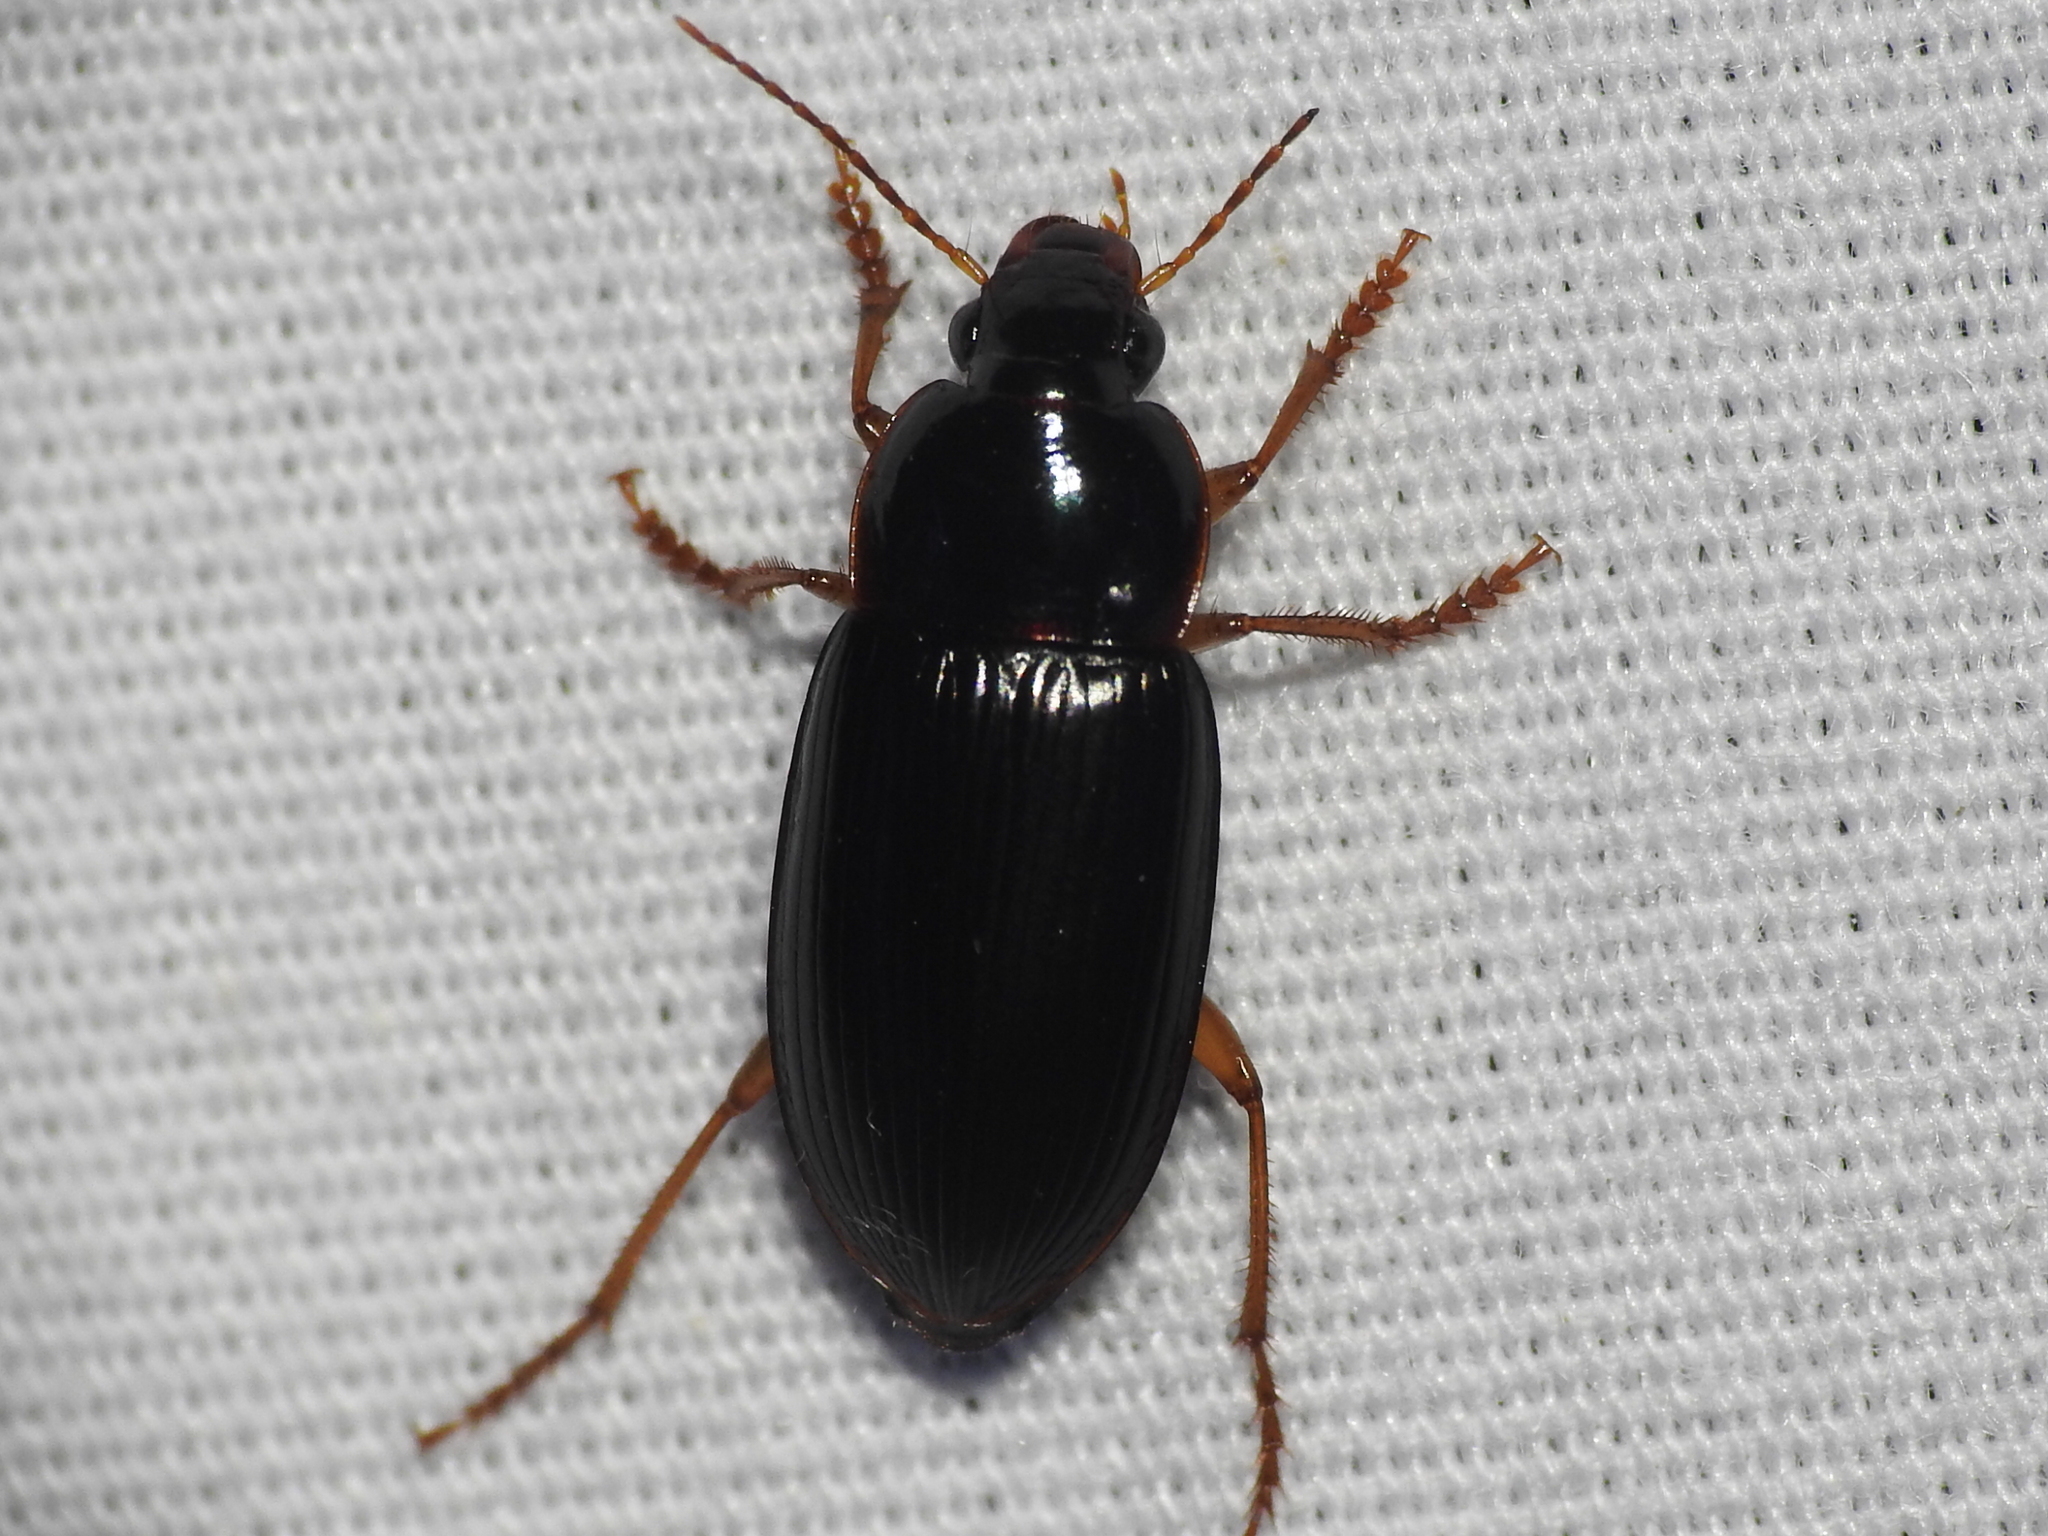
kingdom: Animalia
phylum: Arthropoda
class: Insecta
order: Coleoptera
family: Carabidae
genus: Notiobia
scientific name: Notiobia terminata
